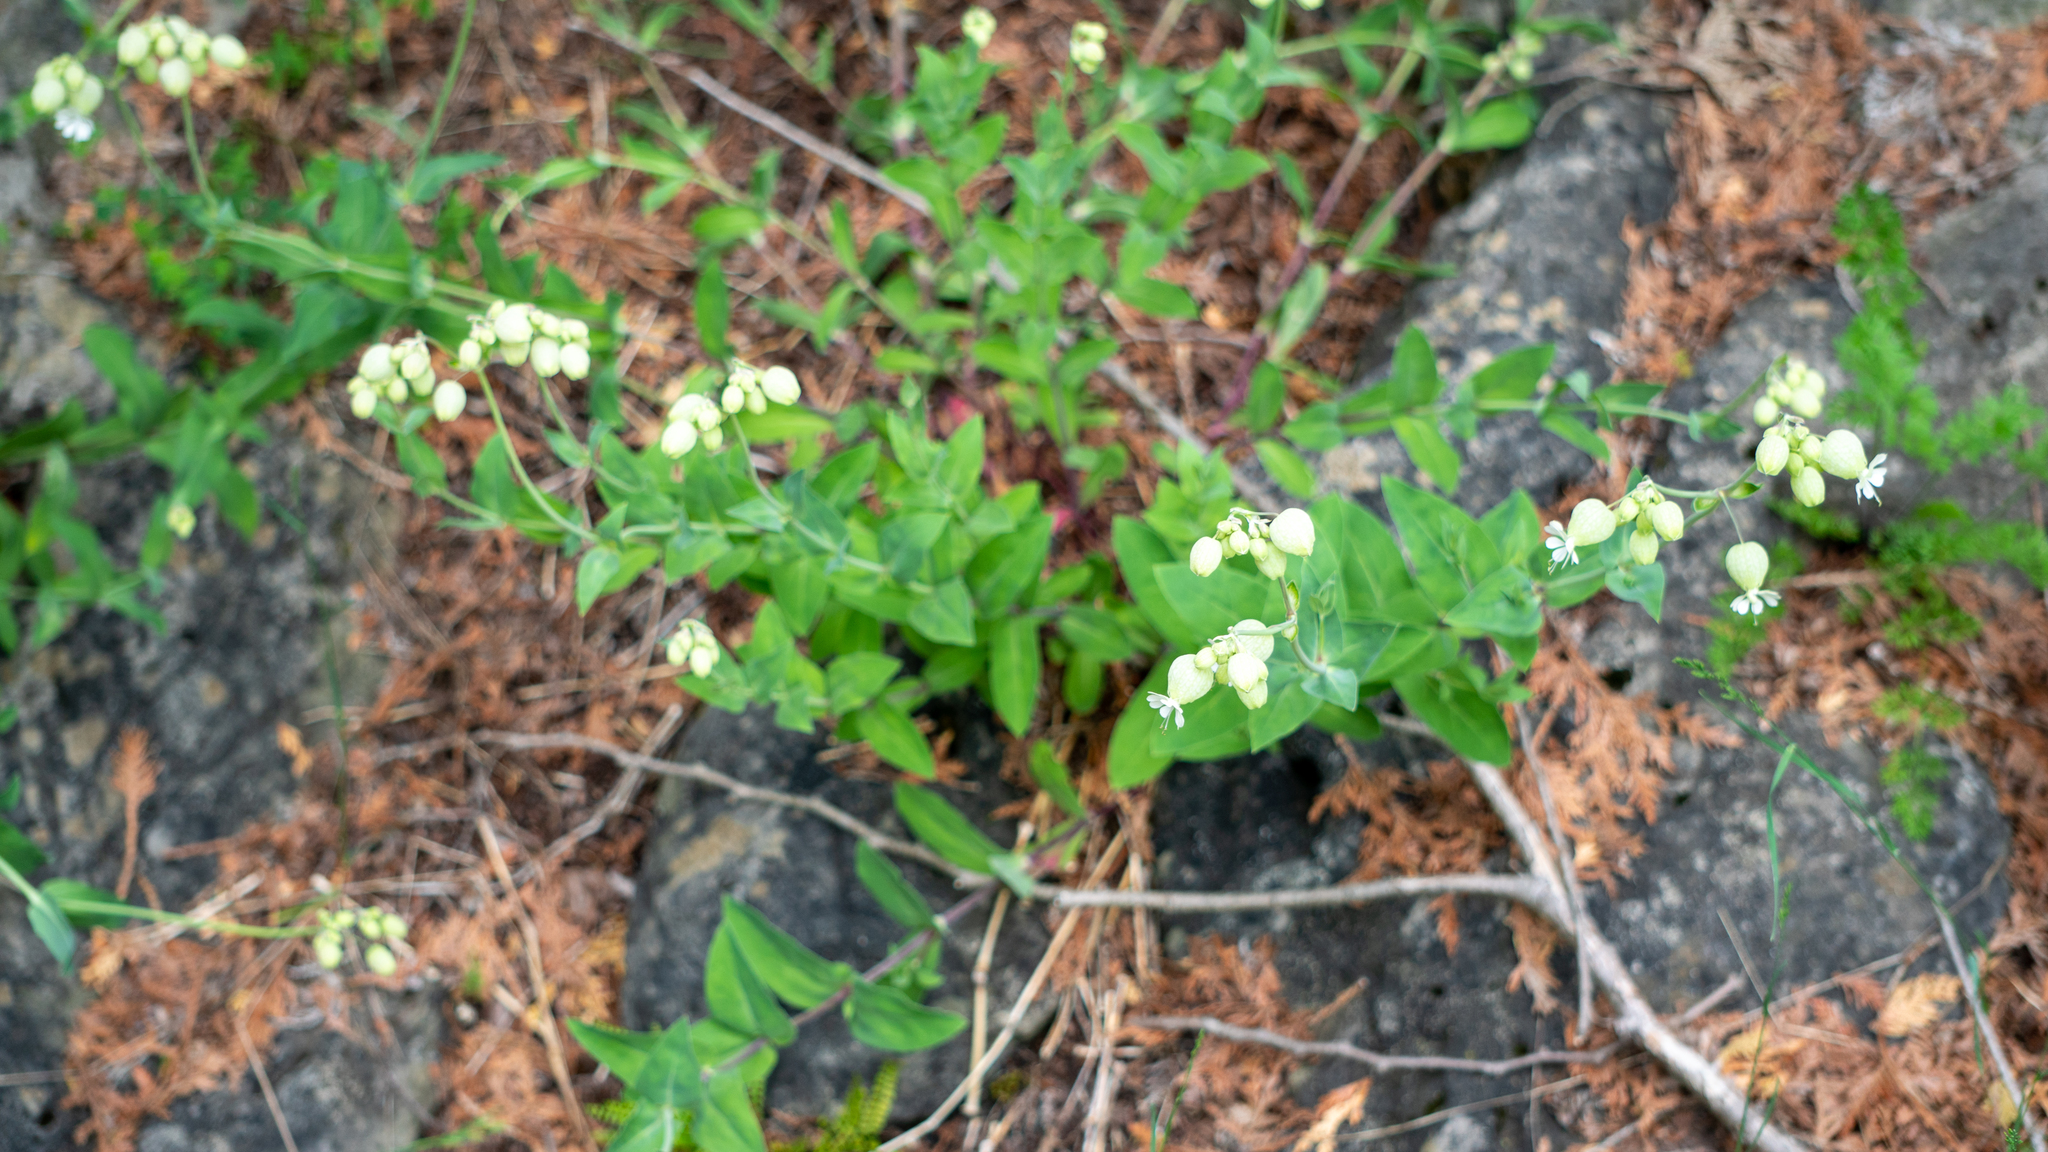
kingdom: Plantae
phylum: Tracheophyta
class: Magnoliopsida
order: Caryophyllales
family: Caryophyllaceae
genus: Silene
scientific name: Silene vulgaris
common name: Bladder campion
